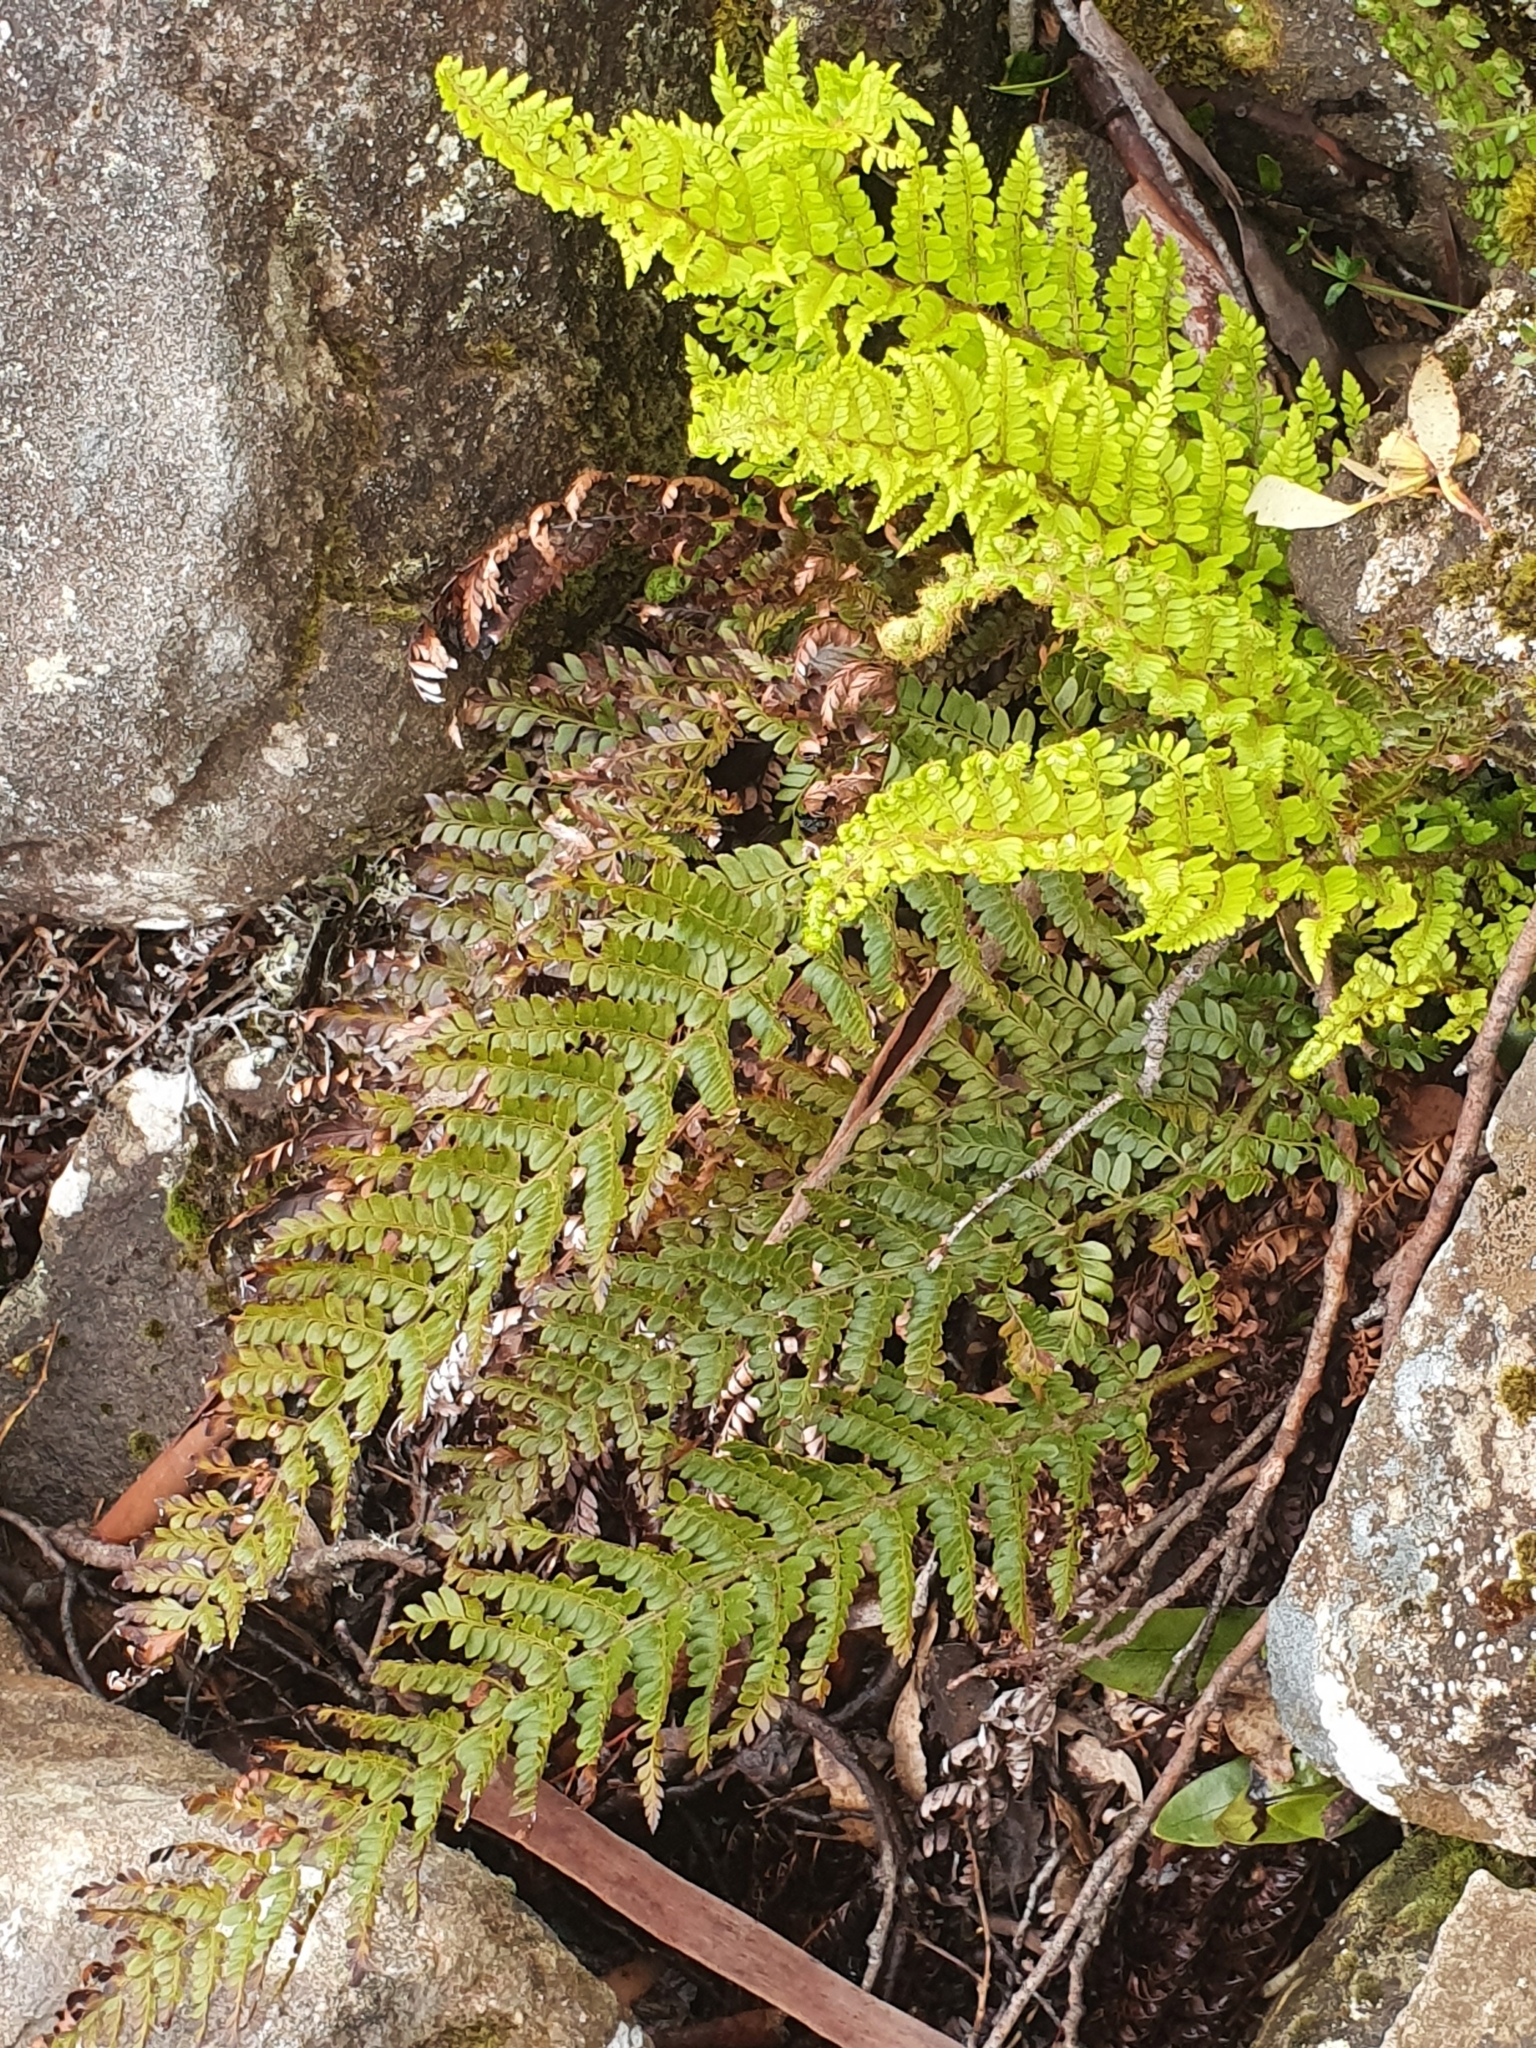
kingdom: Plantae
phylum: Tracheophyta
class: Polypodiopsida
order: Polypodiales
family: Dryopteridaceae
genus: Polystichum
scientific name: Polystichum proliferum
